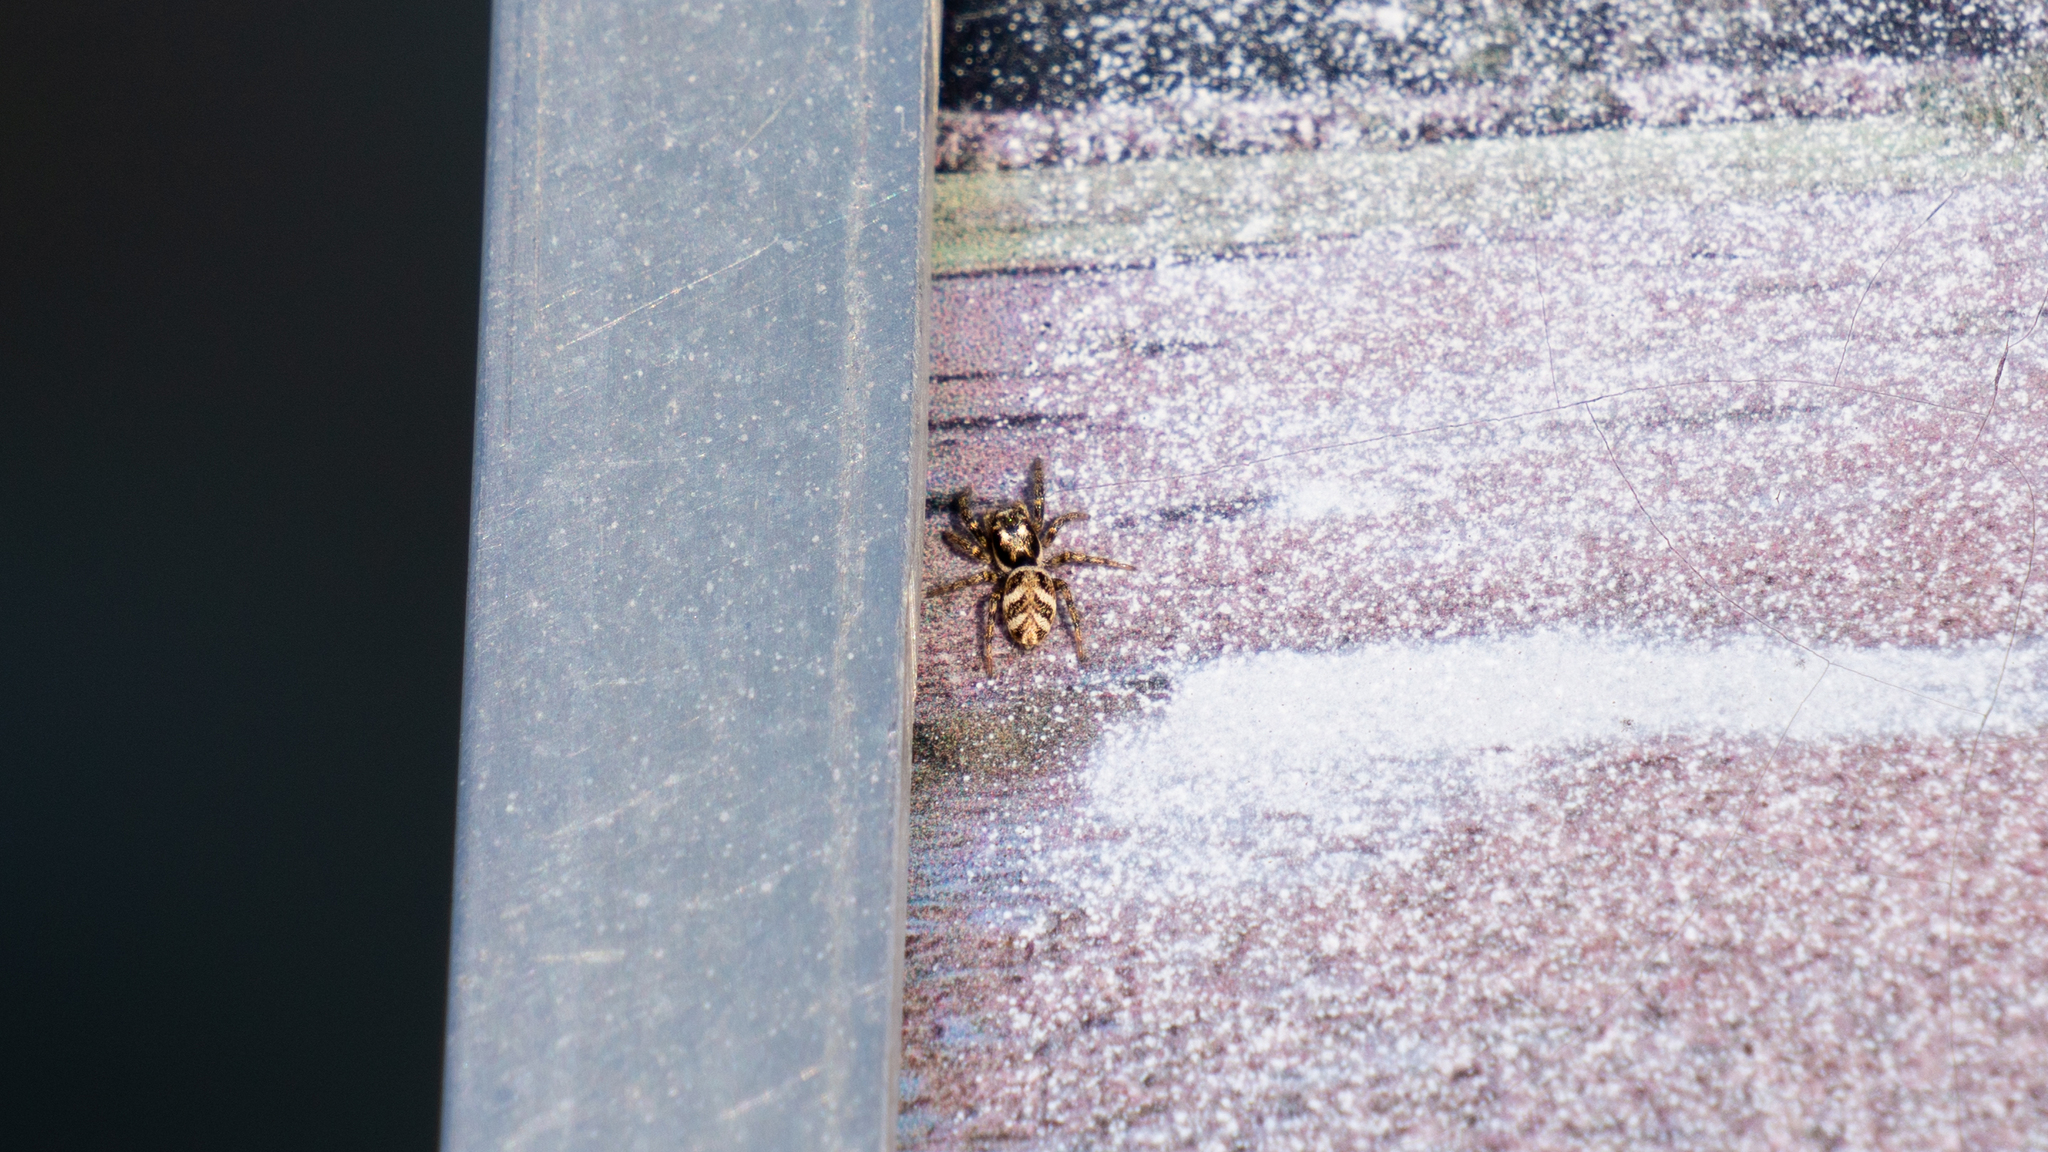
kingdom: Animalia
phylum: Arthropoda
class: Arachnida
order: Araneae
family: Salticidae
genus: Salticus
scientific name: Salticus scenicus
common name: Zebra jumper
